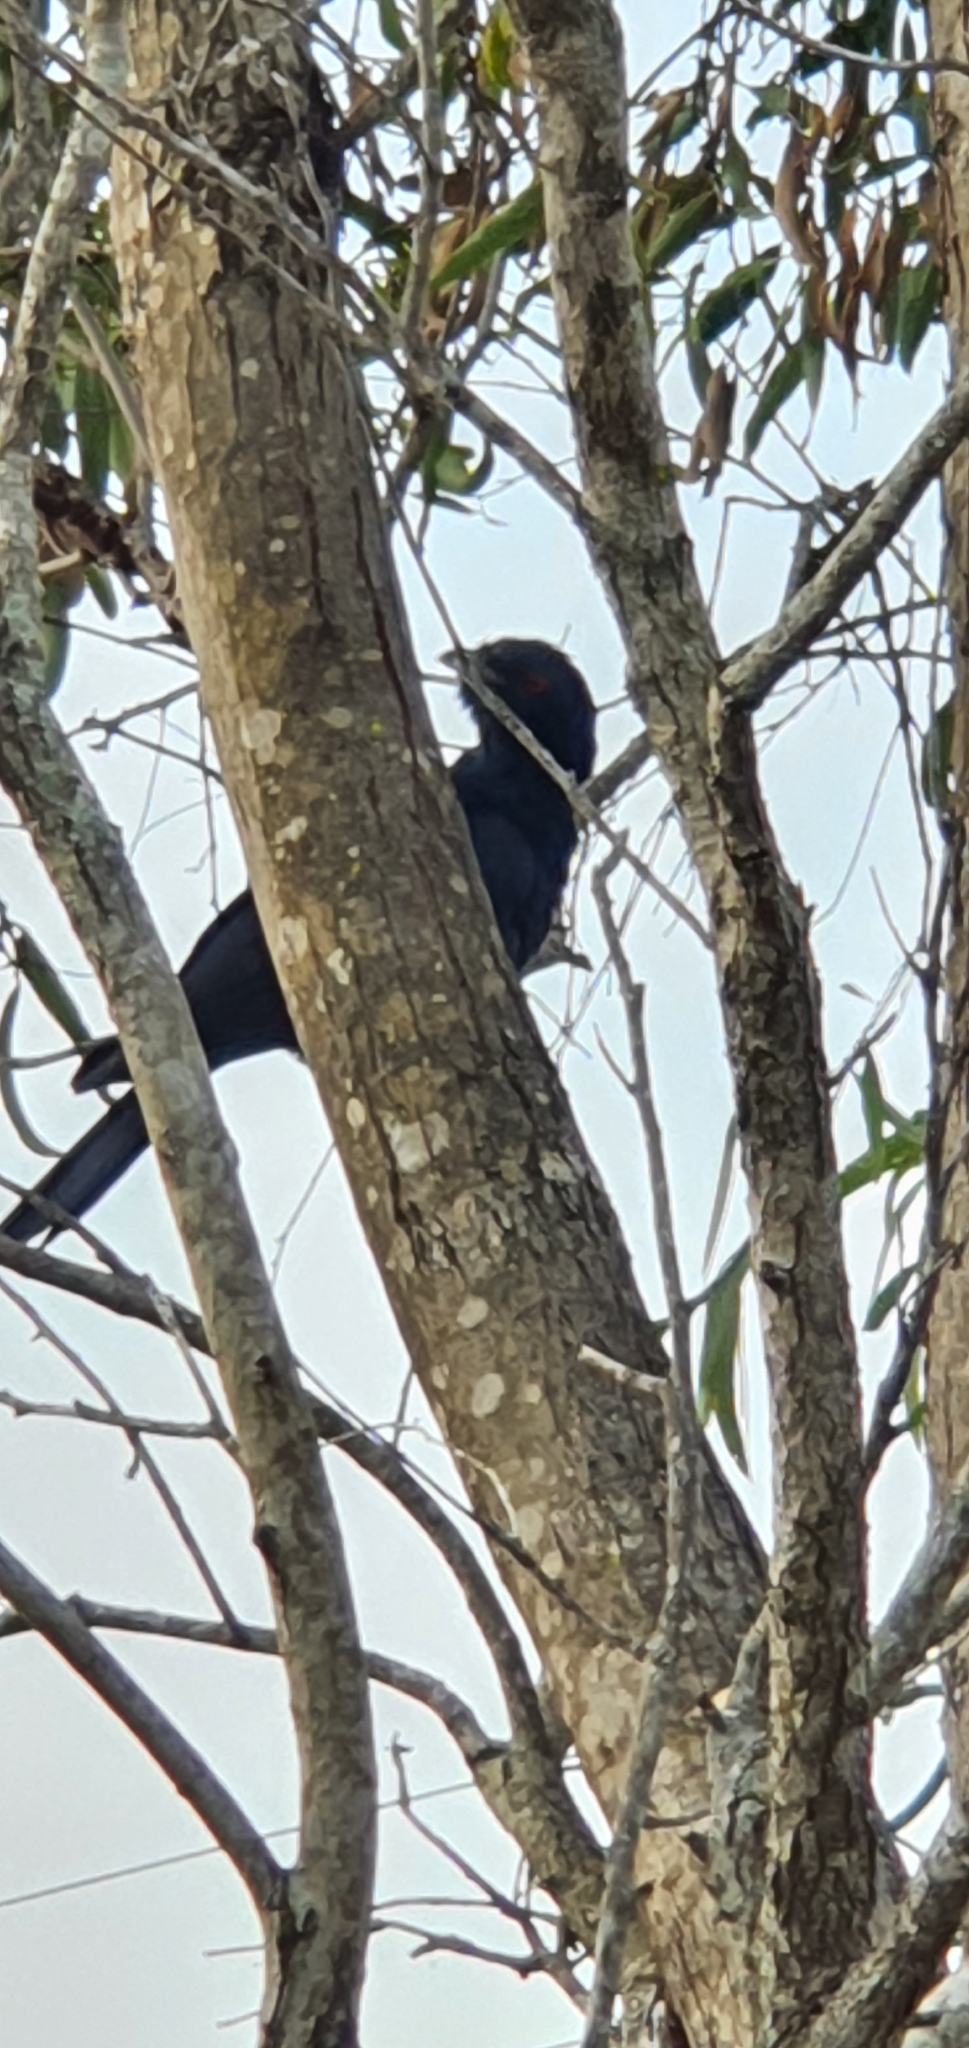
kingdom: Animalia
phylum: Chordata
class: Aves
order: Cuculiformes
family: Cuculidae
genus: Eudynamys
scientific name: Eudynamys orientalis
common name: Pacific koel
